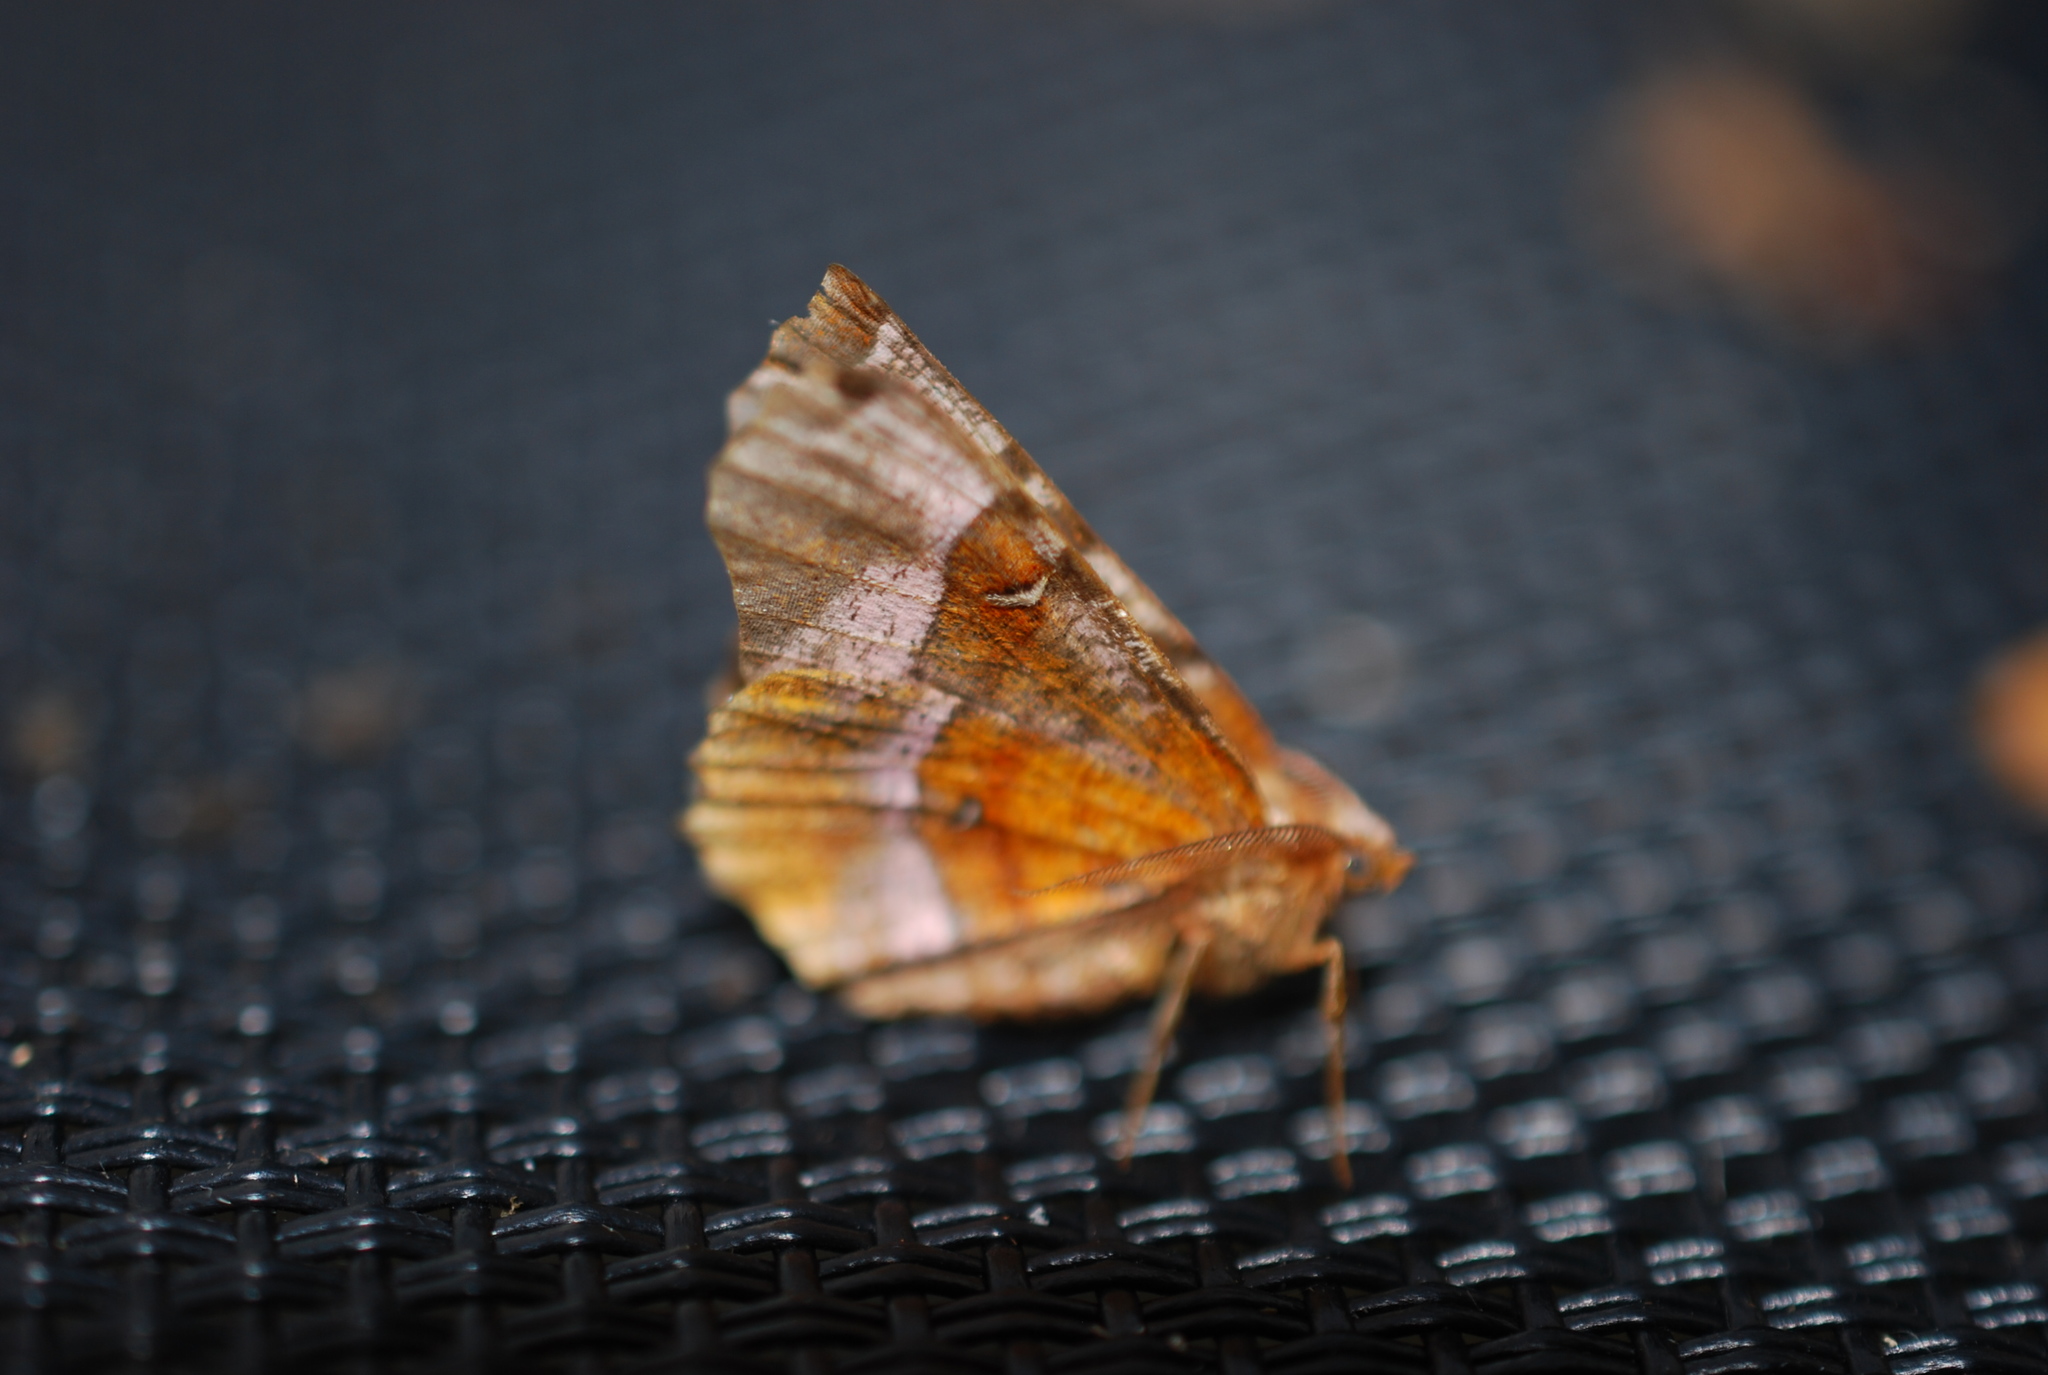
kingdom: Animalia
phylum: Arthropoda
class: Insecta
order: Lepidoptera
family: Geometridae
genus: Selenia
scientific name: Selenia tetralunaria
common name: Purple thorn
